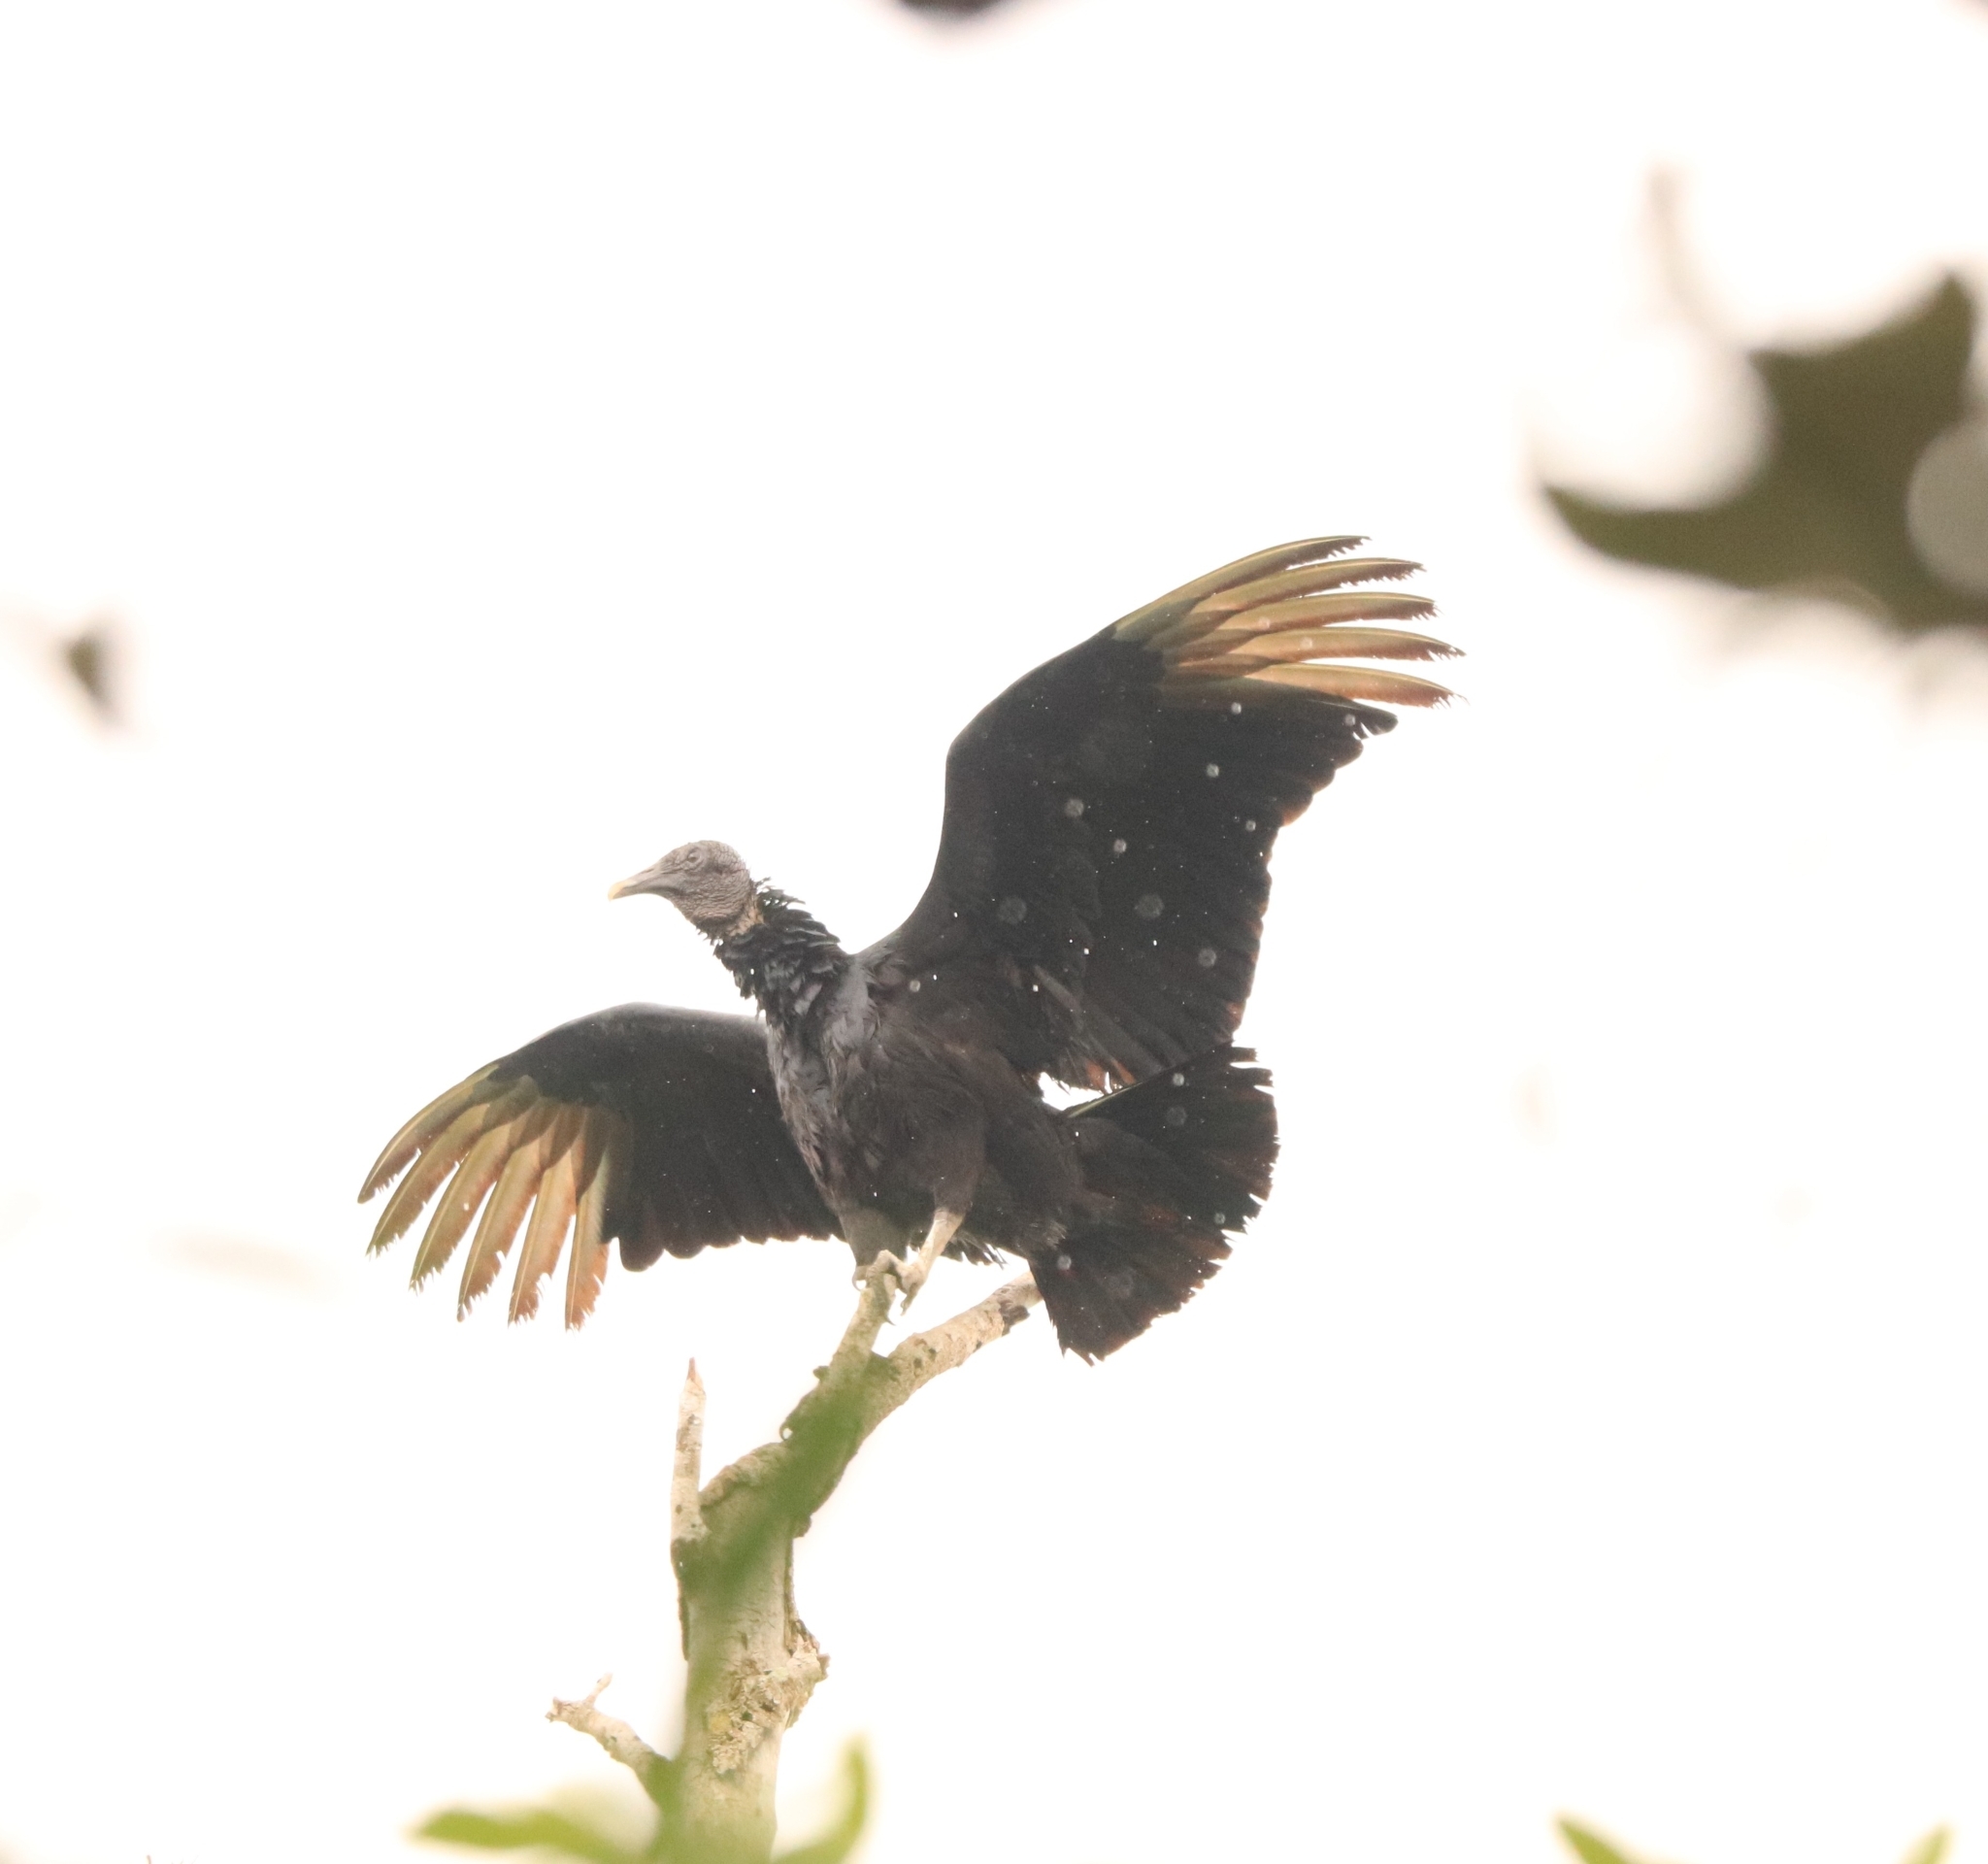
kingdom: Animalia
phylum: Chordata
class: Aves
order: Accipitriformes
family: Cathartidae
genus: Coragyps
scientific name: Coragyps atratus
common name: Black vulture
